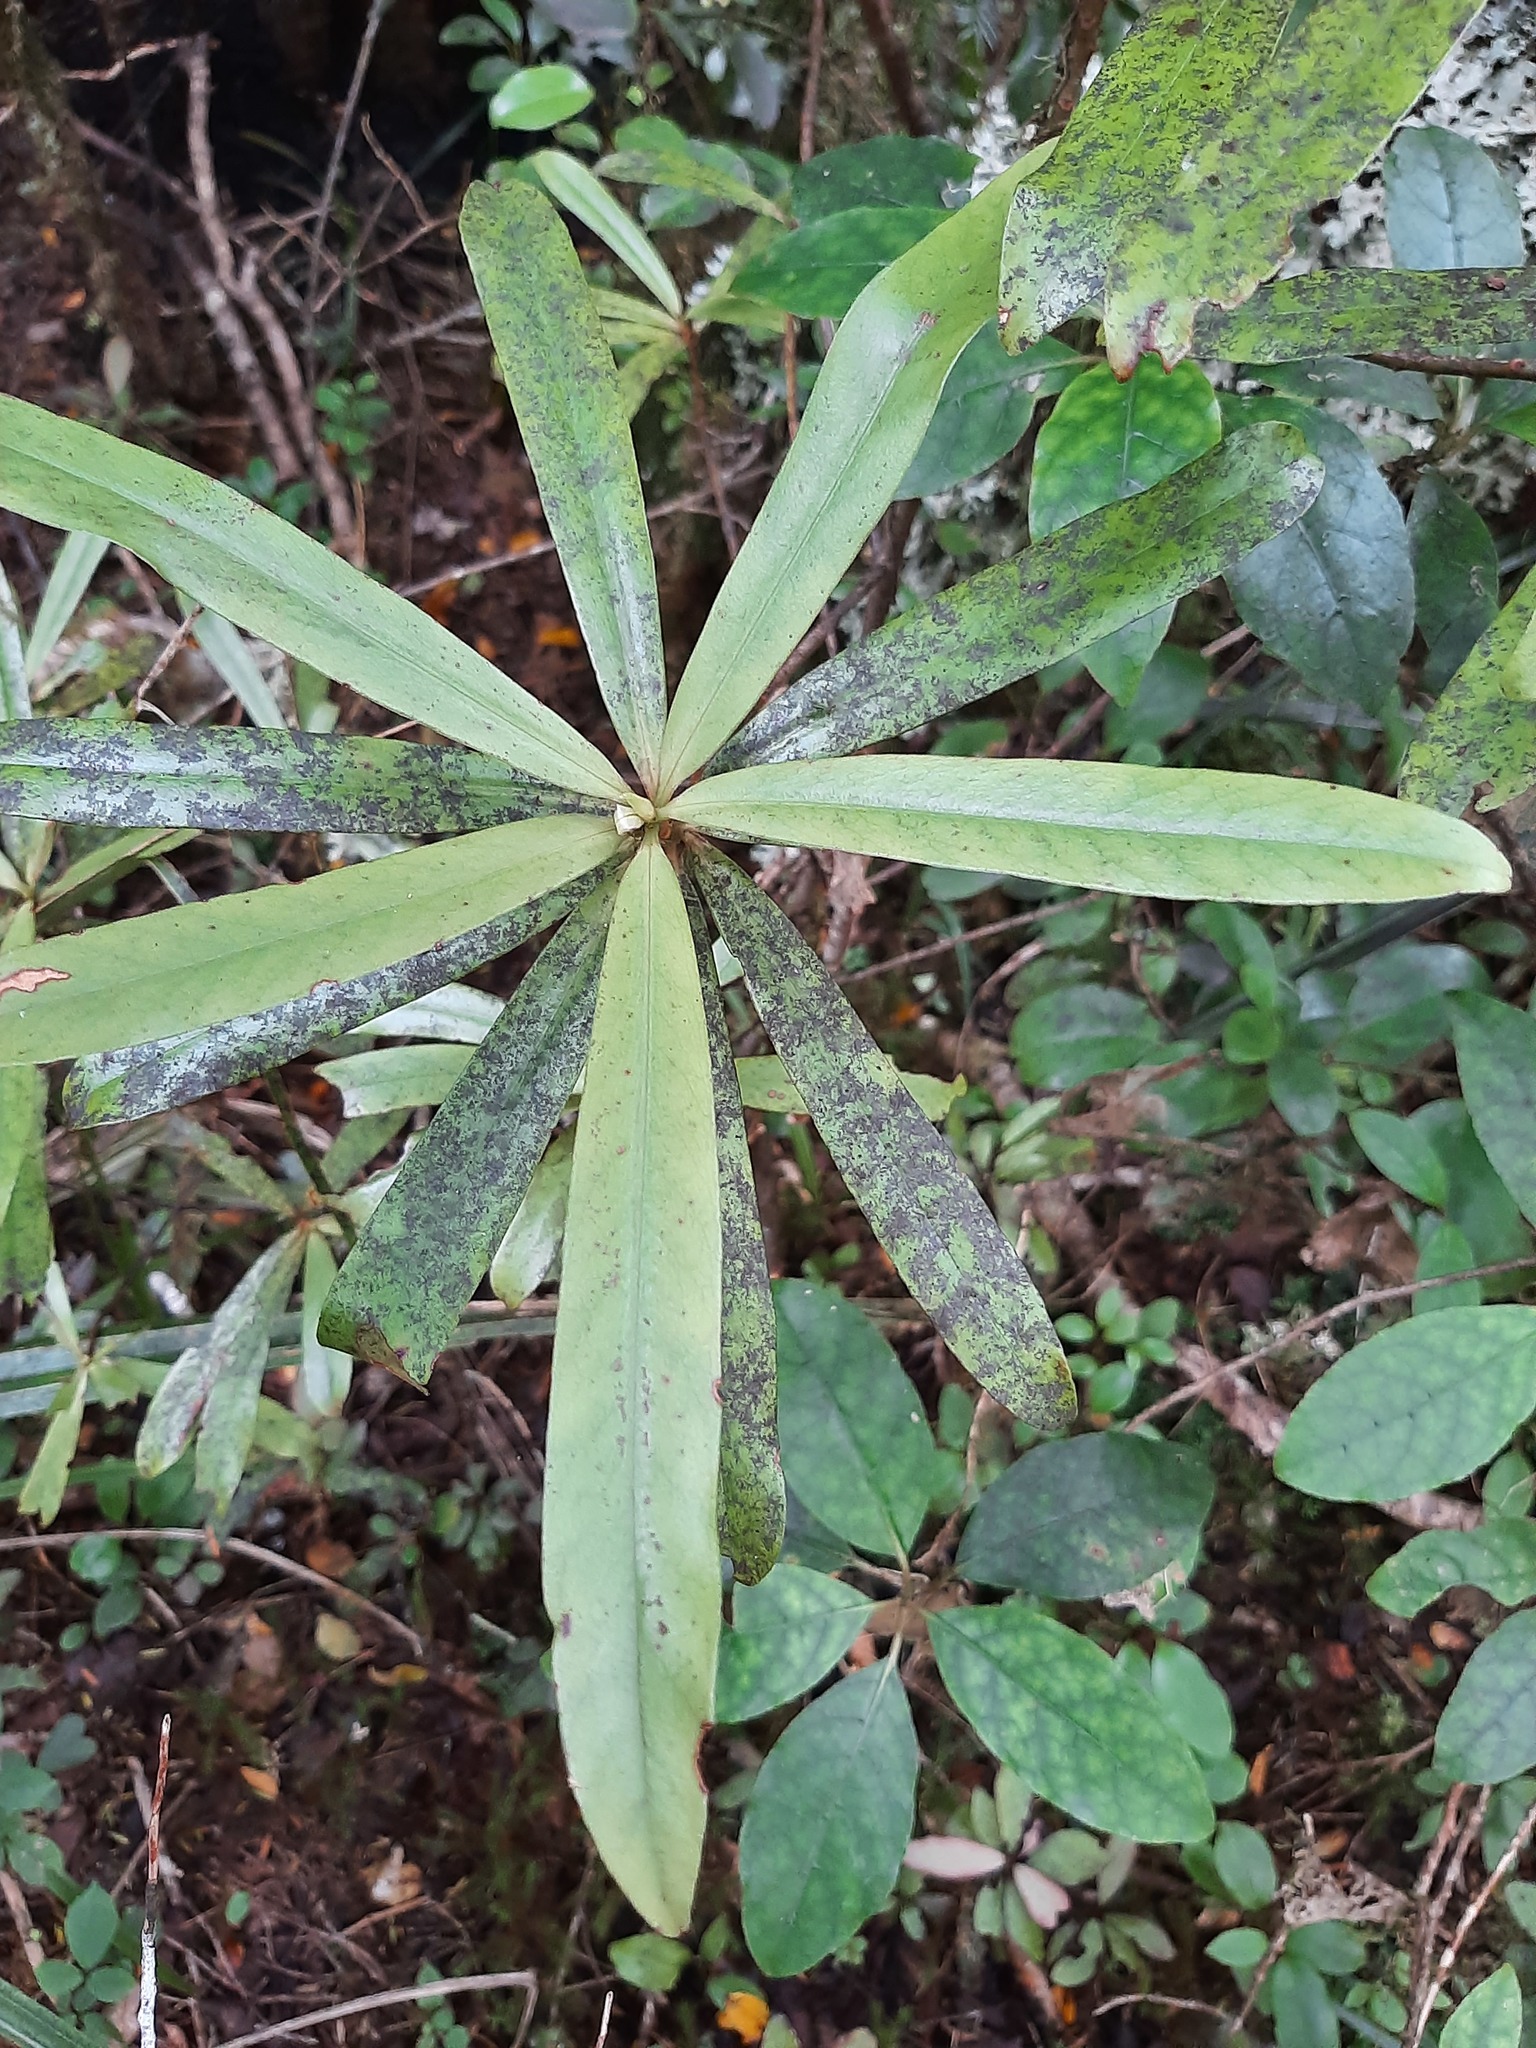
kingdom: Plantae
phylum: Tracheophyta
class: Magnoliopsida
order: Ericales
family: Primulaceae
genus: Myrsine
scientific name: Myrsine salicina
